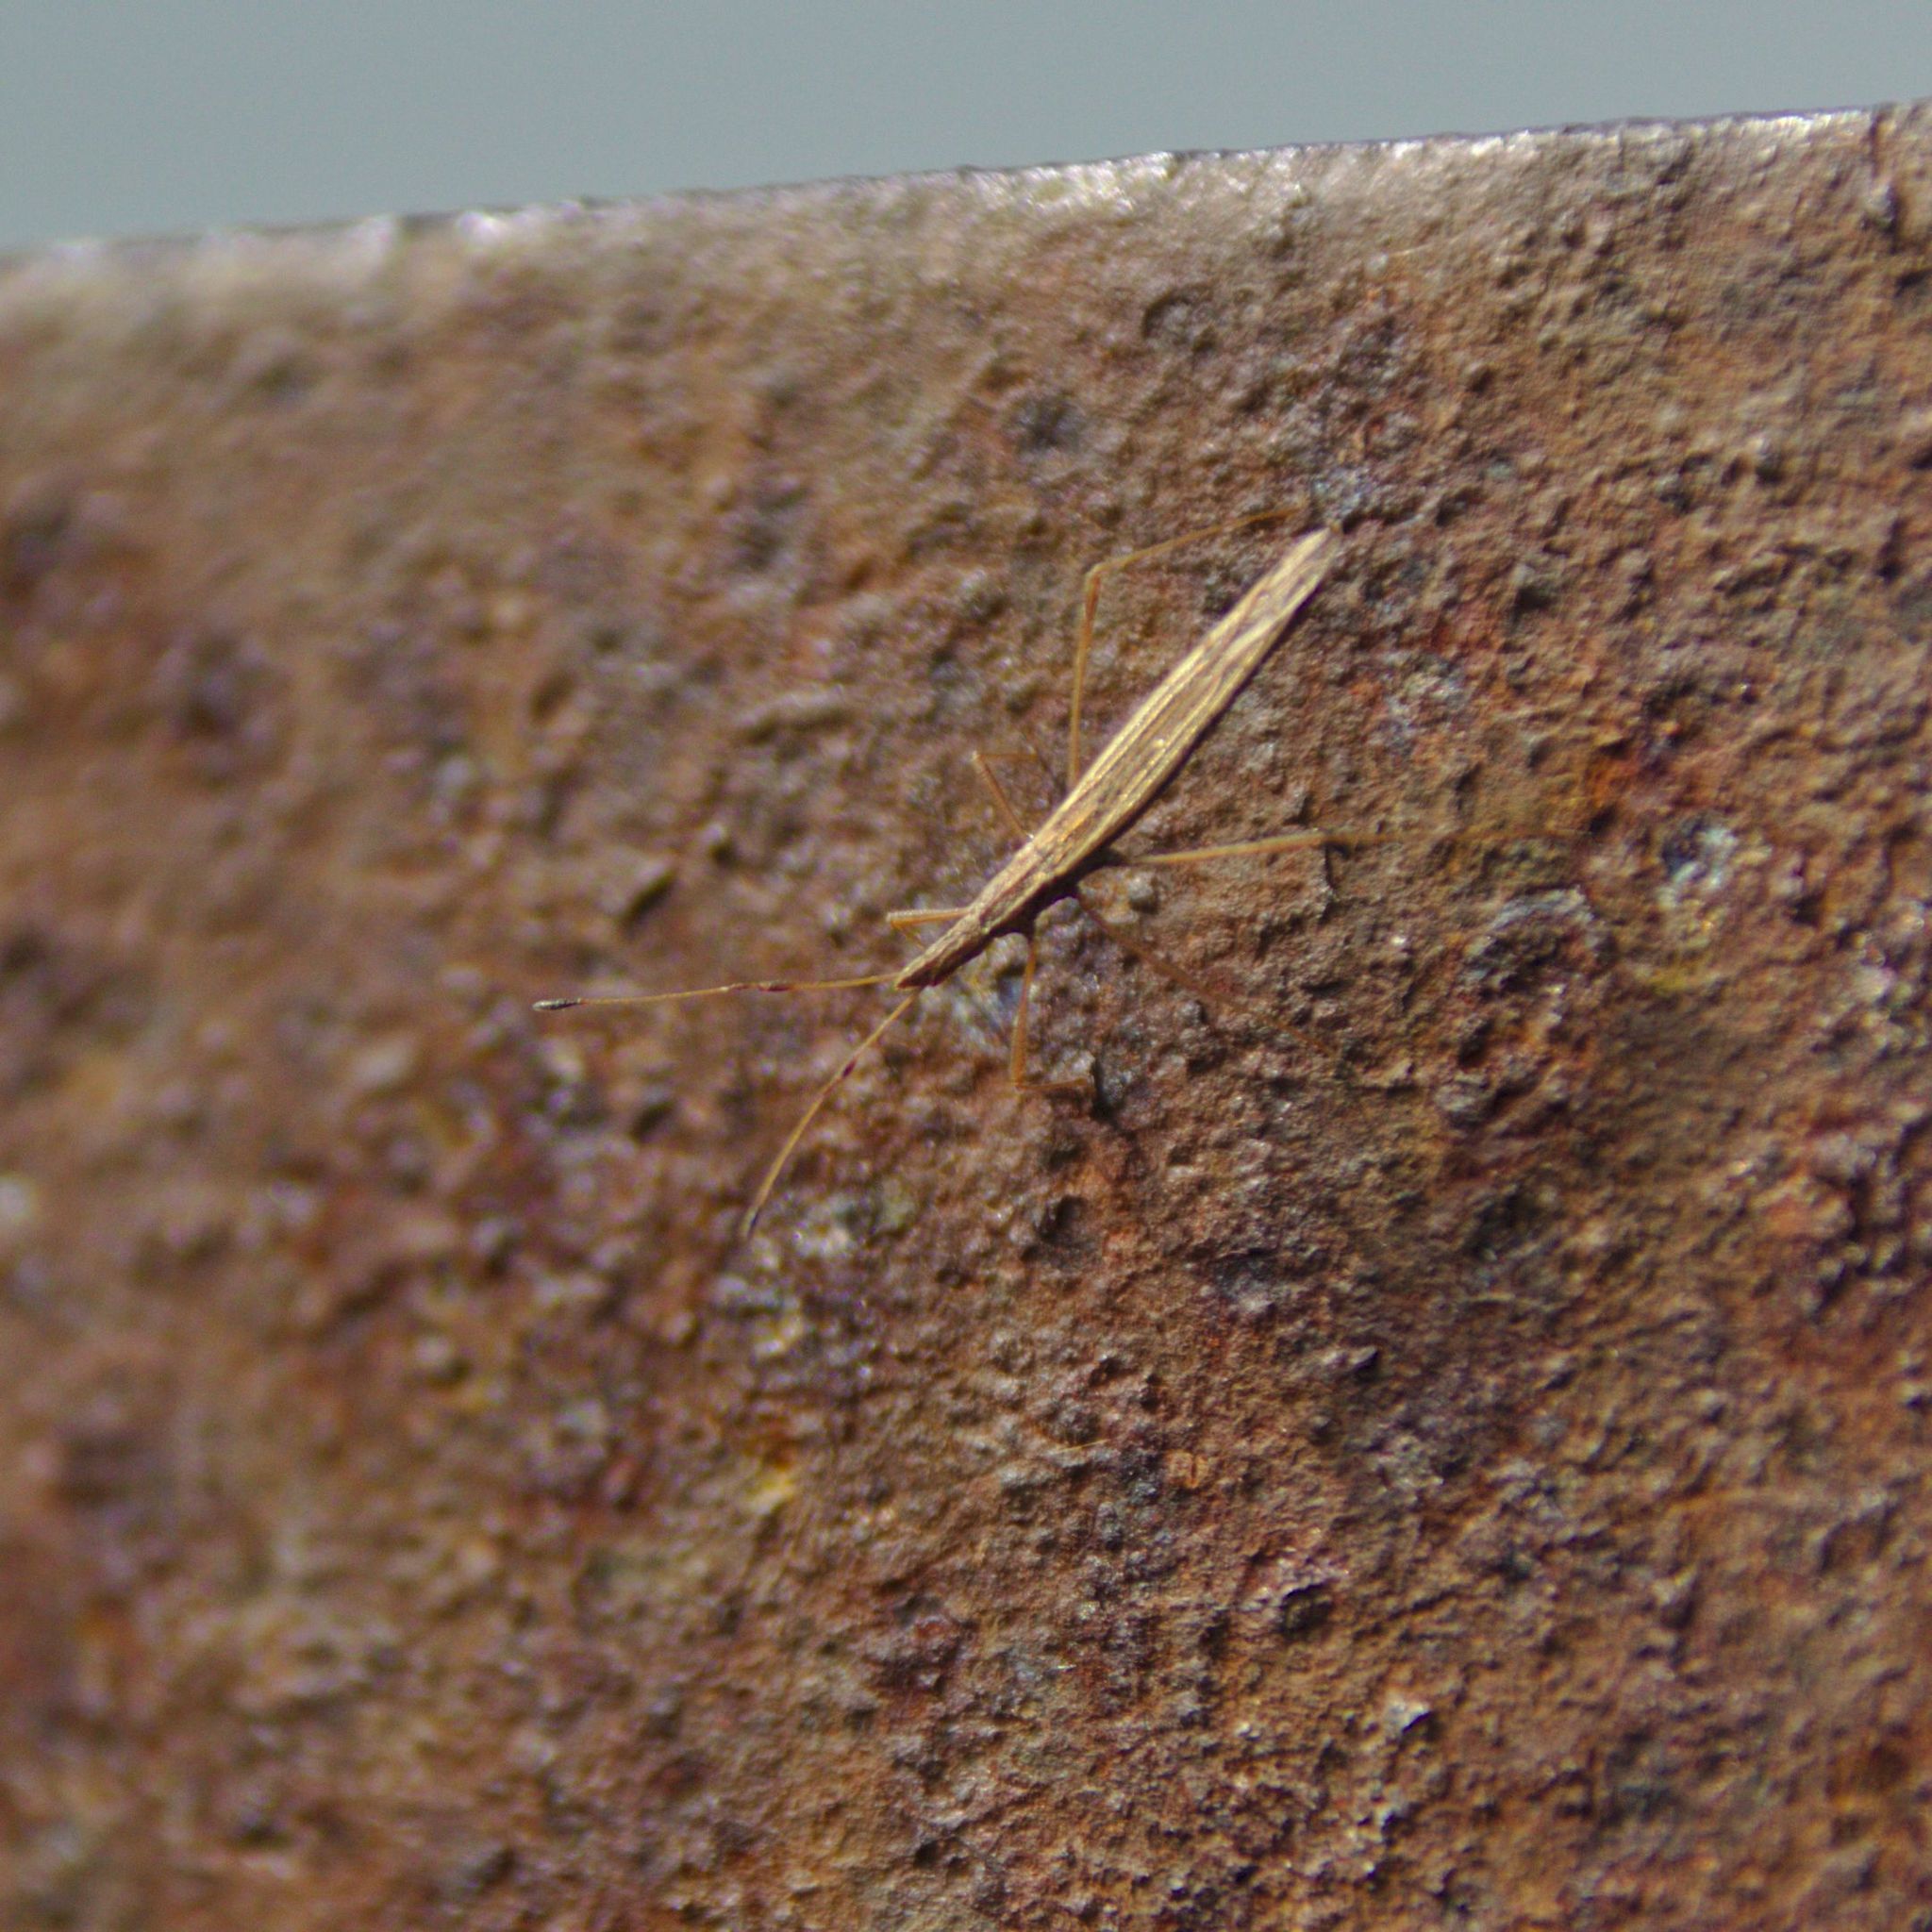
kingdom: Animalia
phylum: Arthropoda
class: Insecta
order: Hemiptera
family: Berytidae
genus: Berytinus
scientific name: Berytinus
